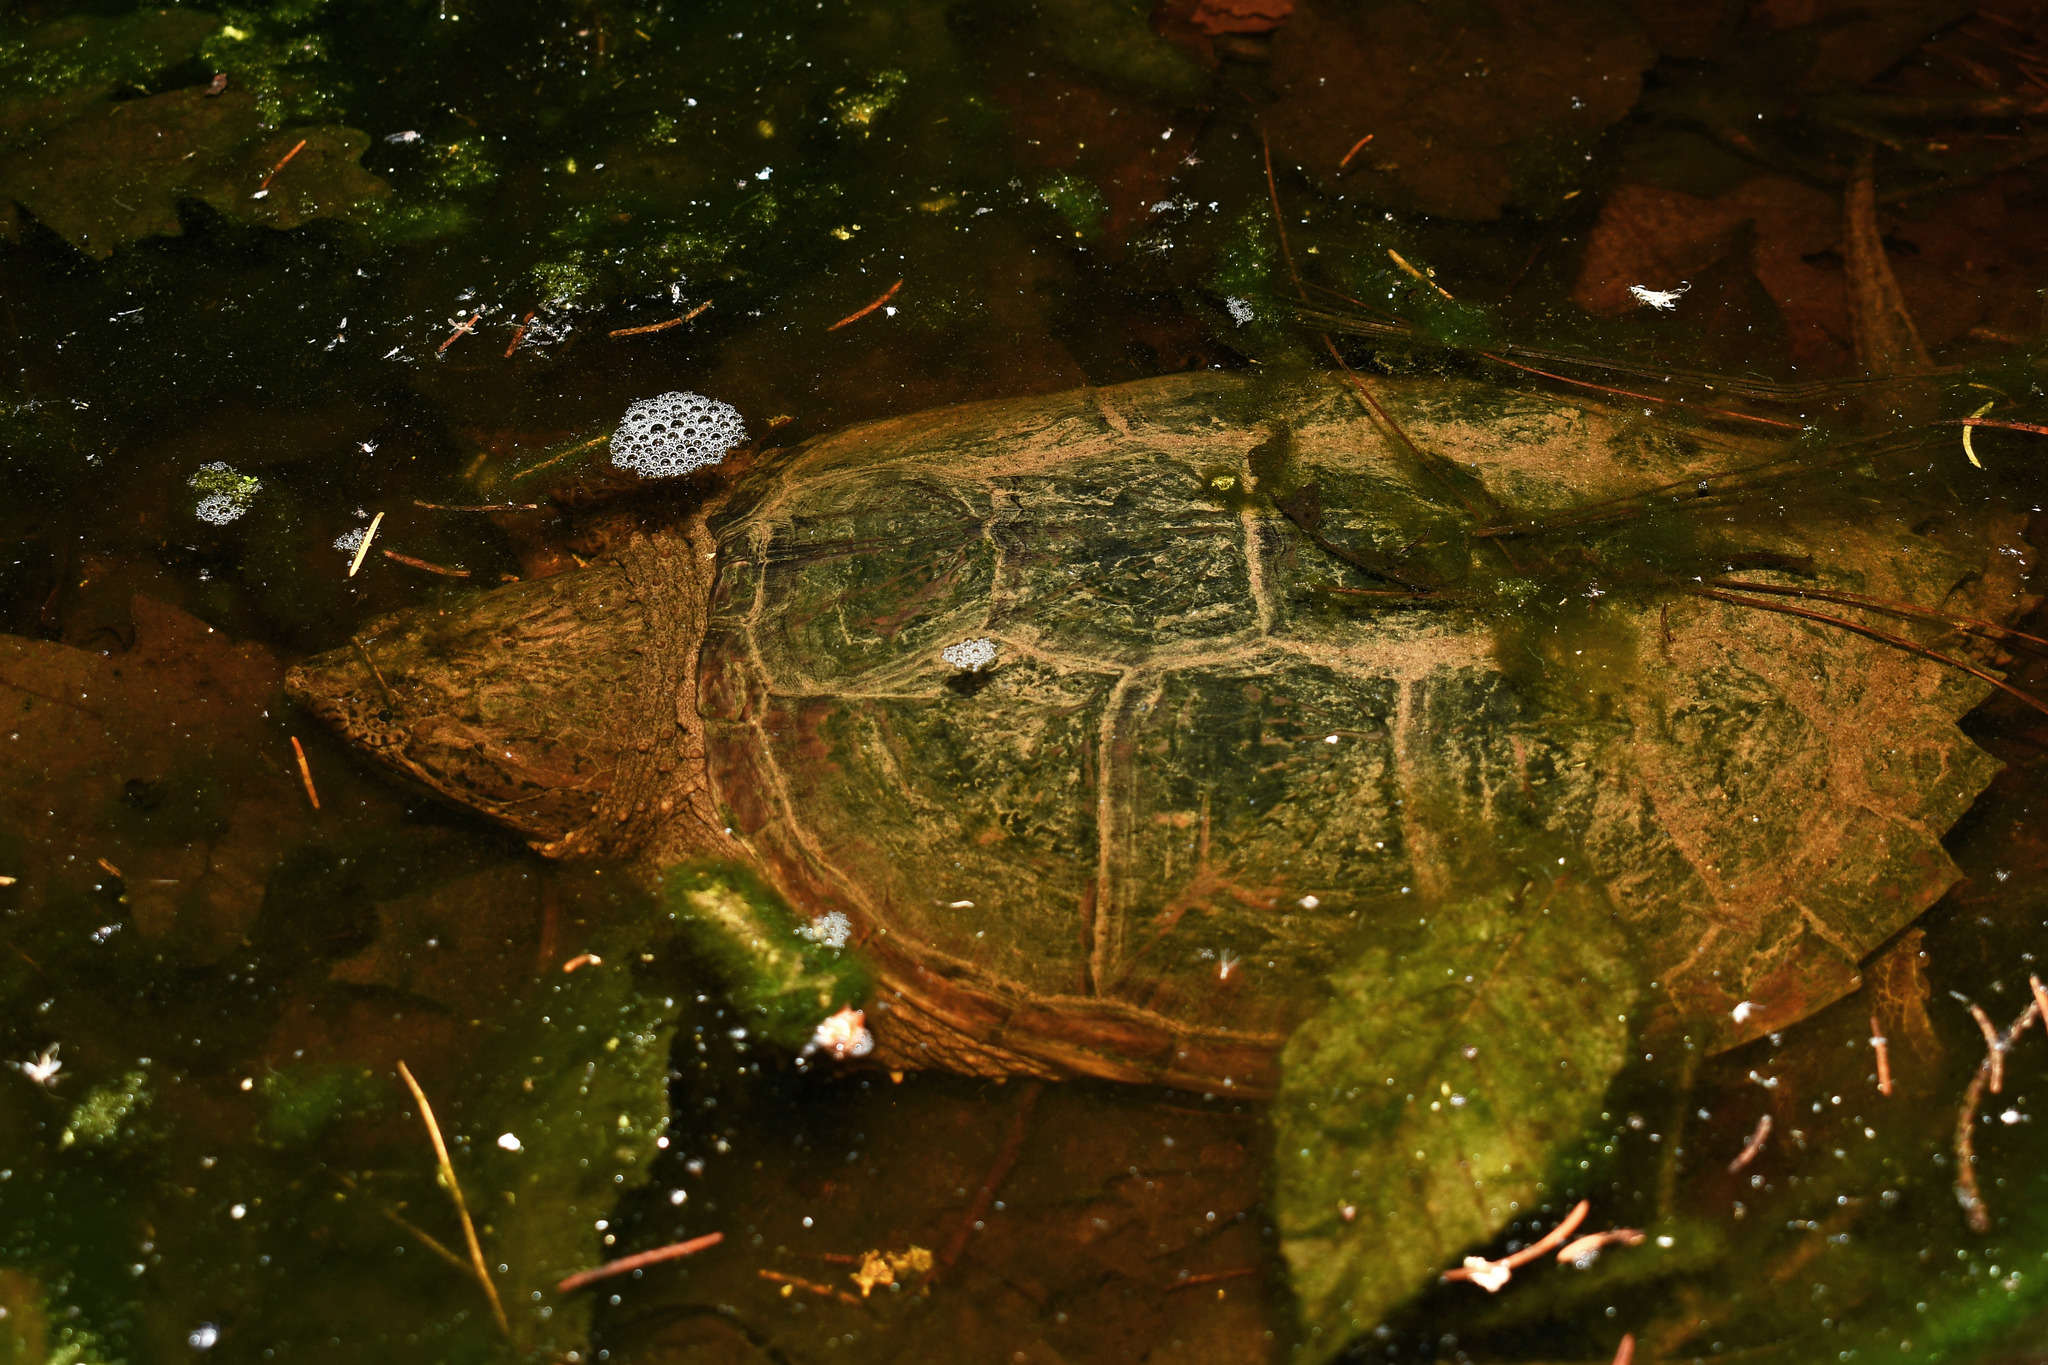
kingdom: Animalia
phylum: Chordata
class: Testudines
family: Chelydridae
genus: Chelydra
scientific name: Chelydra serpentina
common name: Common snapping turtle
